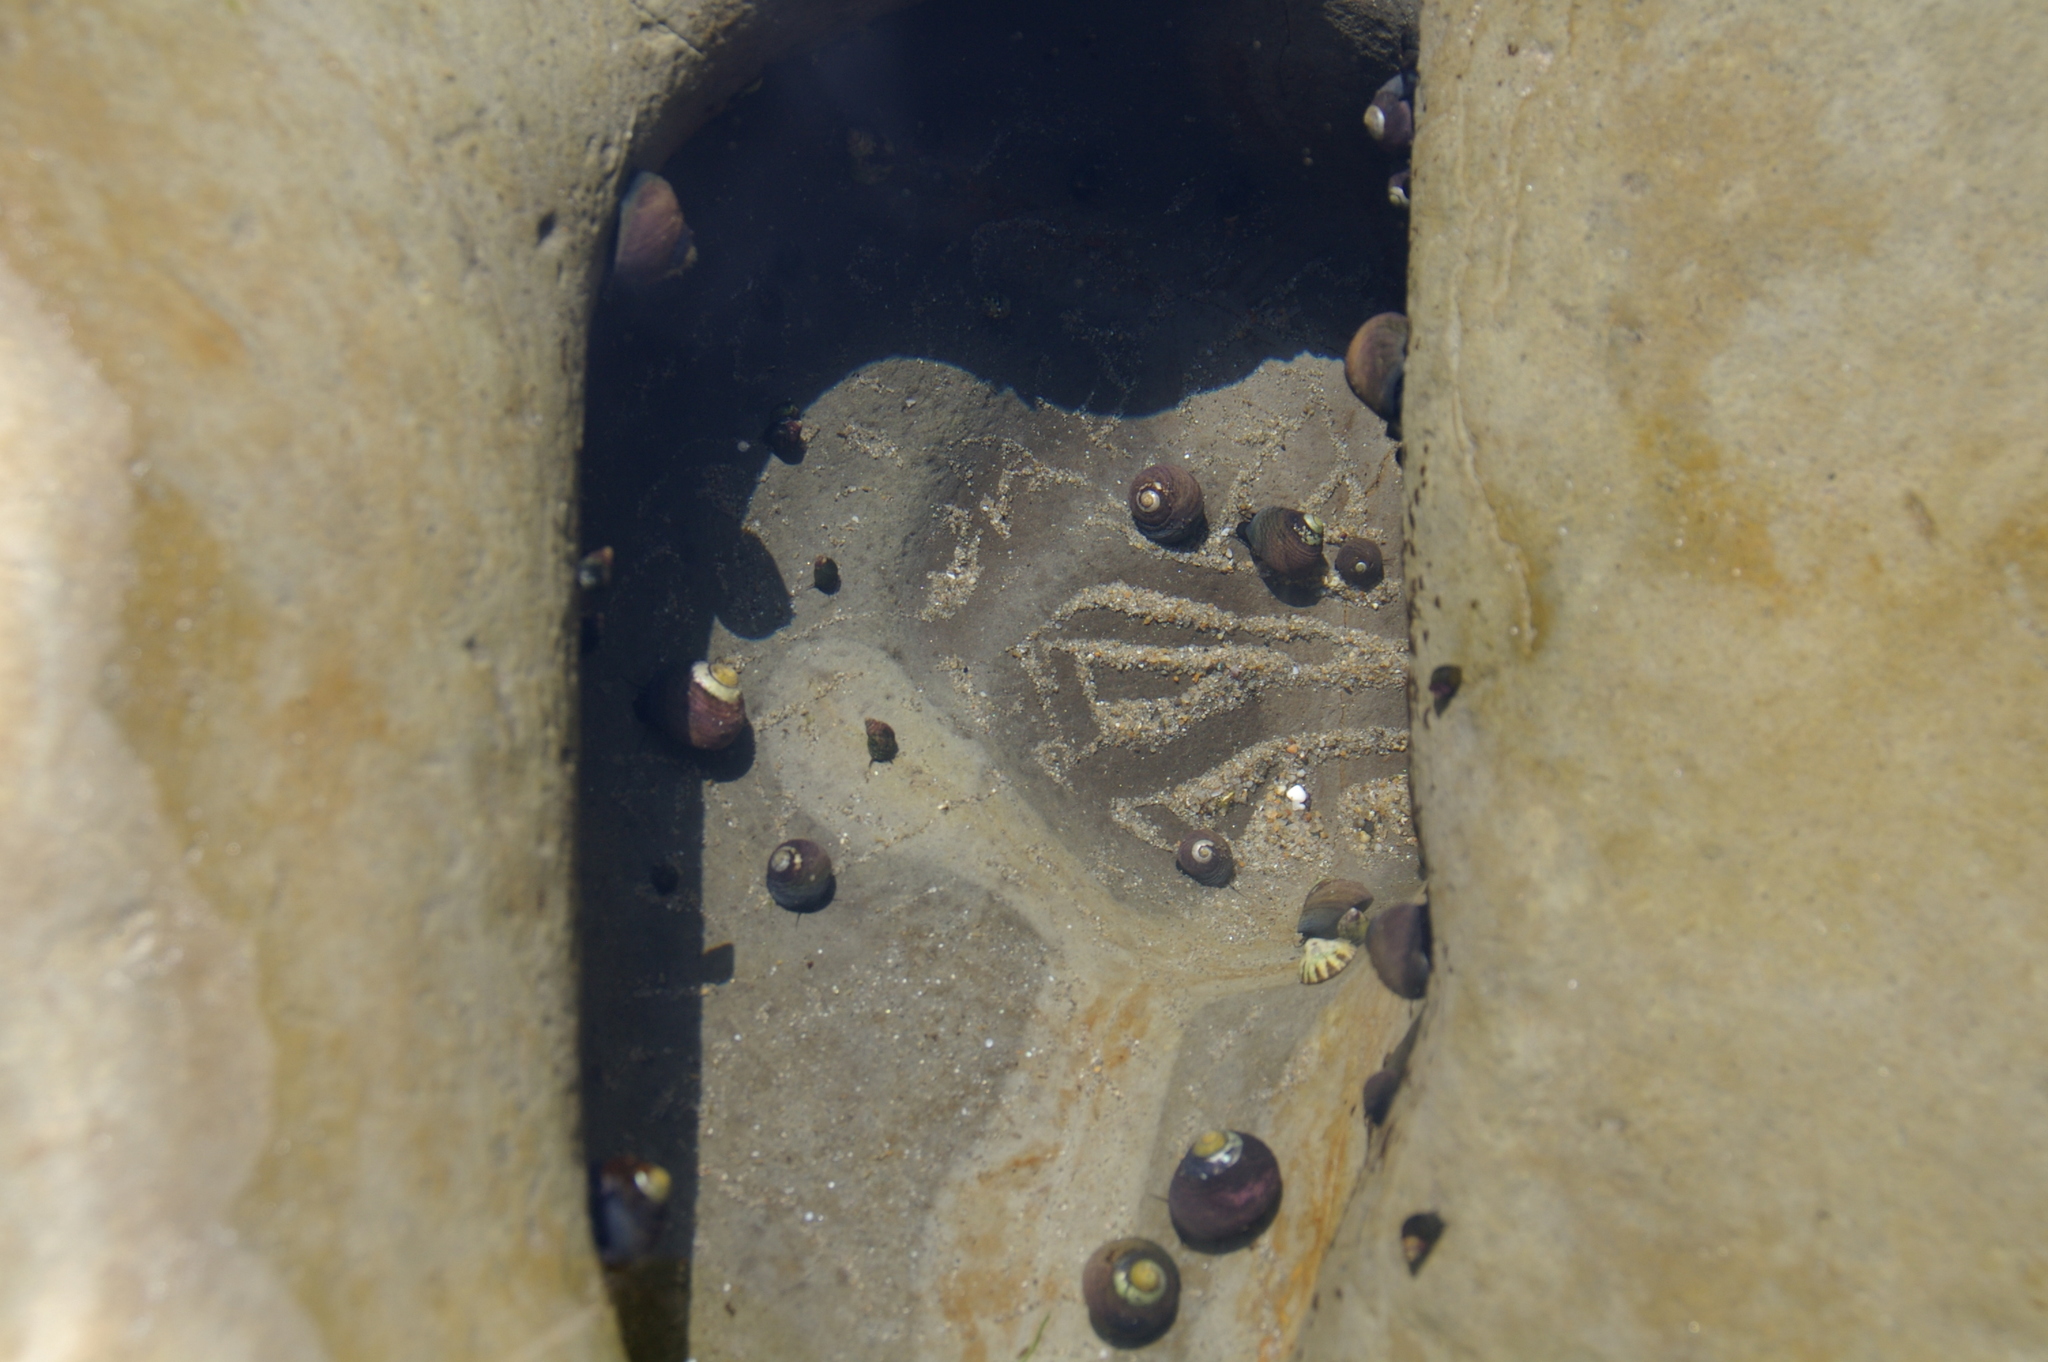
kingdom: Animalia
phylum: Mollusca
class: Gastropoda
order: Trochida
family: Tegulidae
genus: Tegula
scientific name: Tegula funebralis
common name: Black tegula
